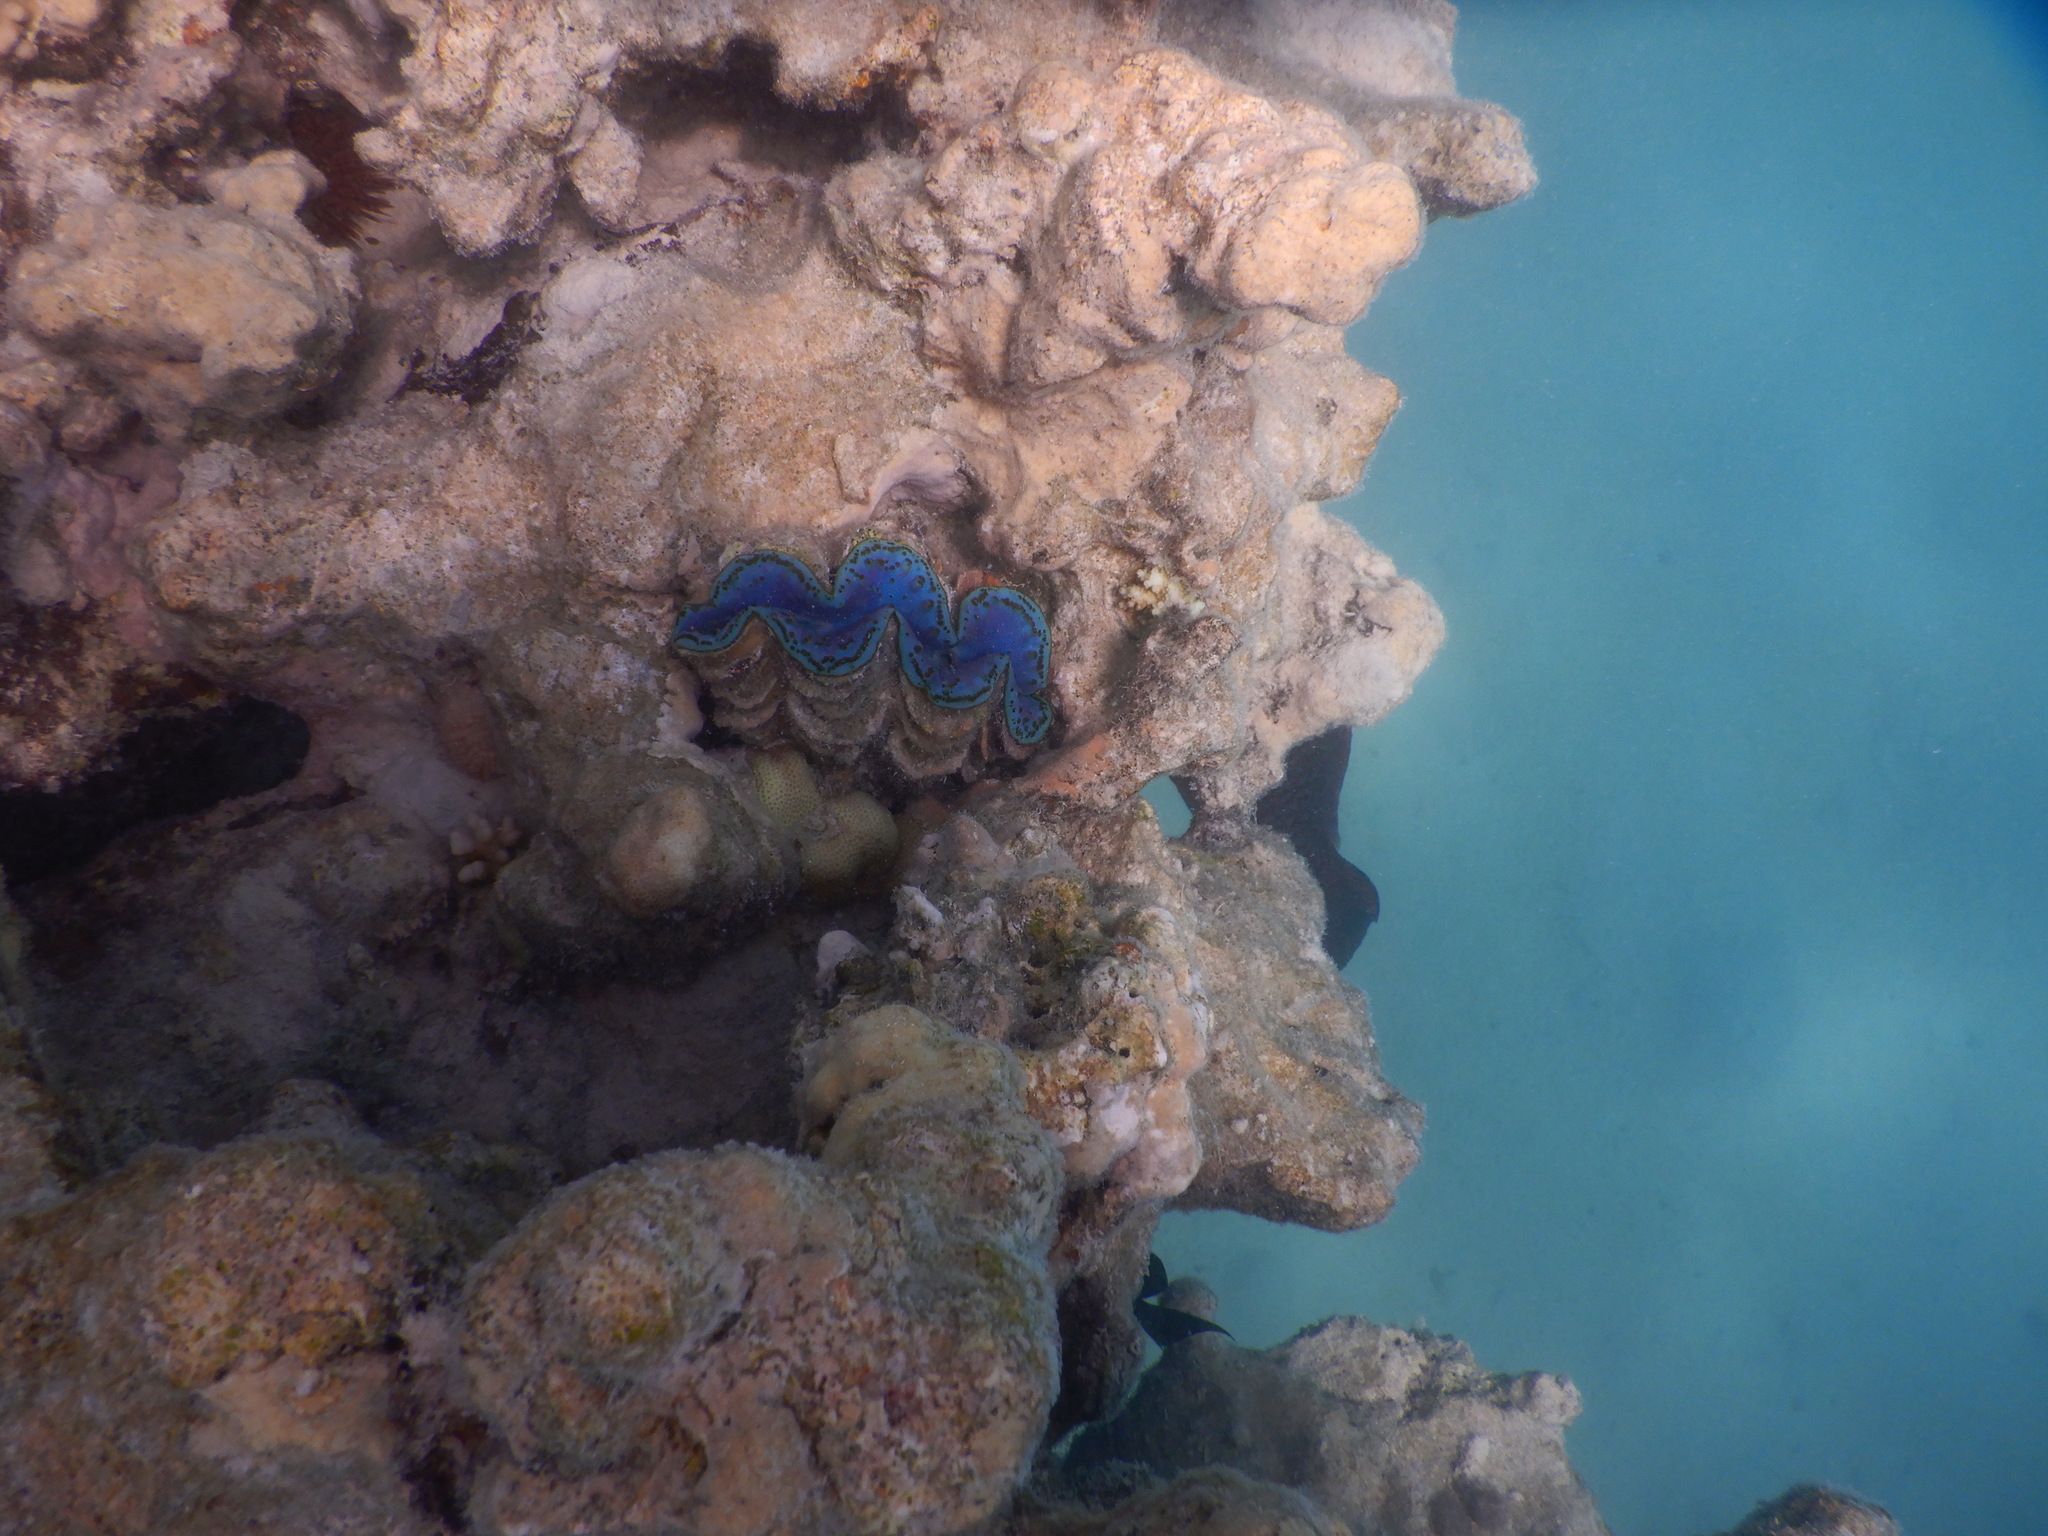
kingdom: Animalia
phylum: Mollusca
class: Bivalvia
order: Cardiida
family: Cardiidae
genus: Tridacna
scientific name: Tridacna maxima
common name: Small giant clam
